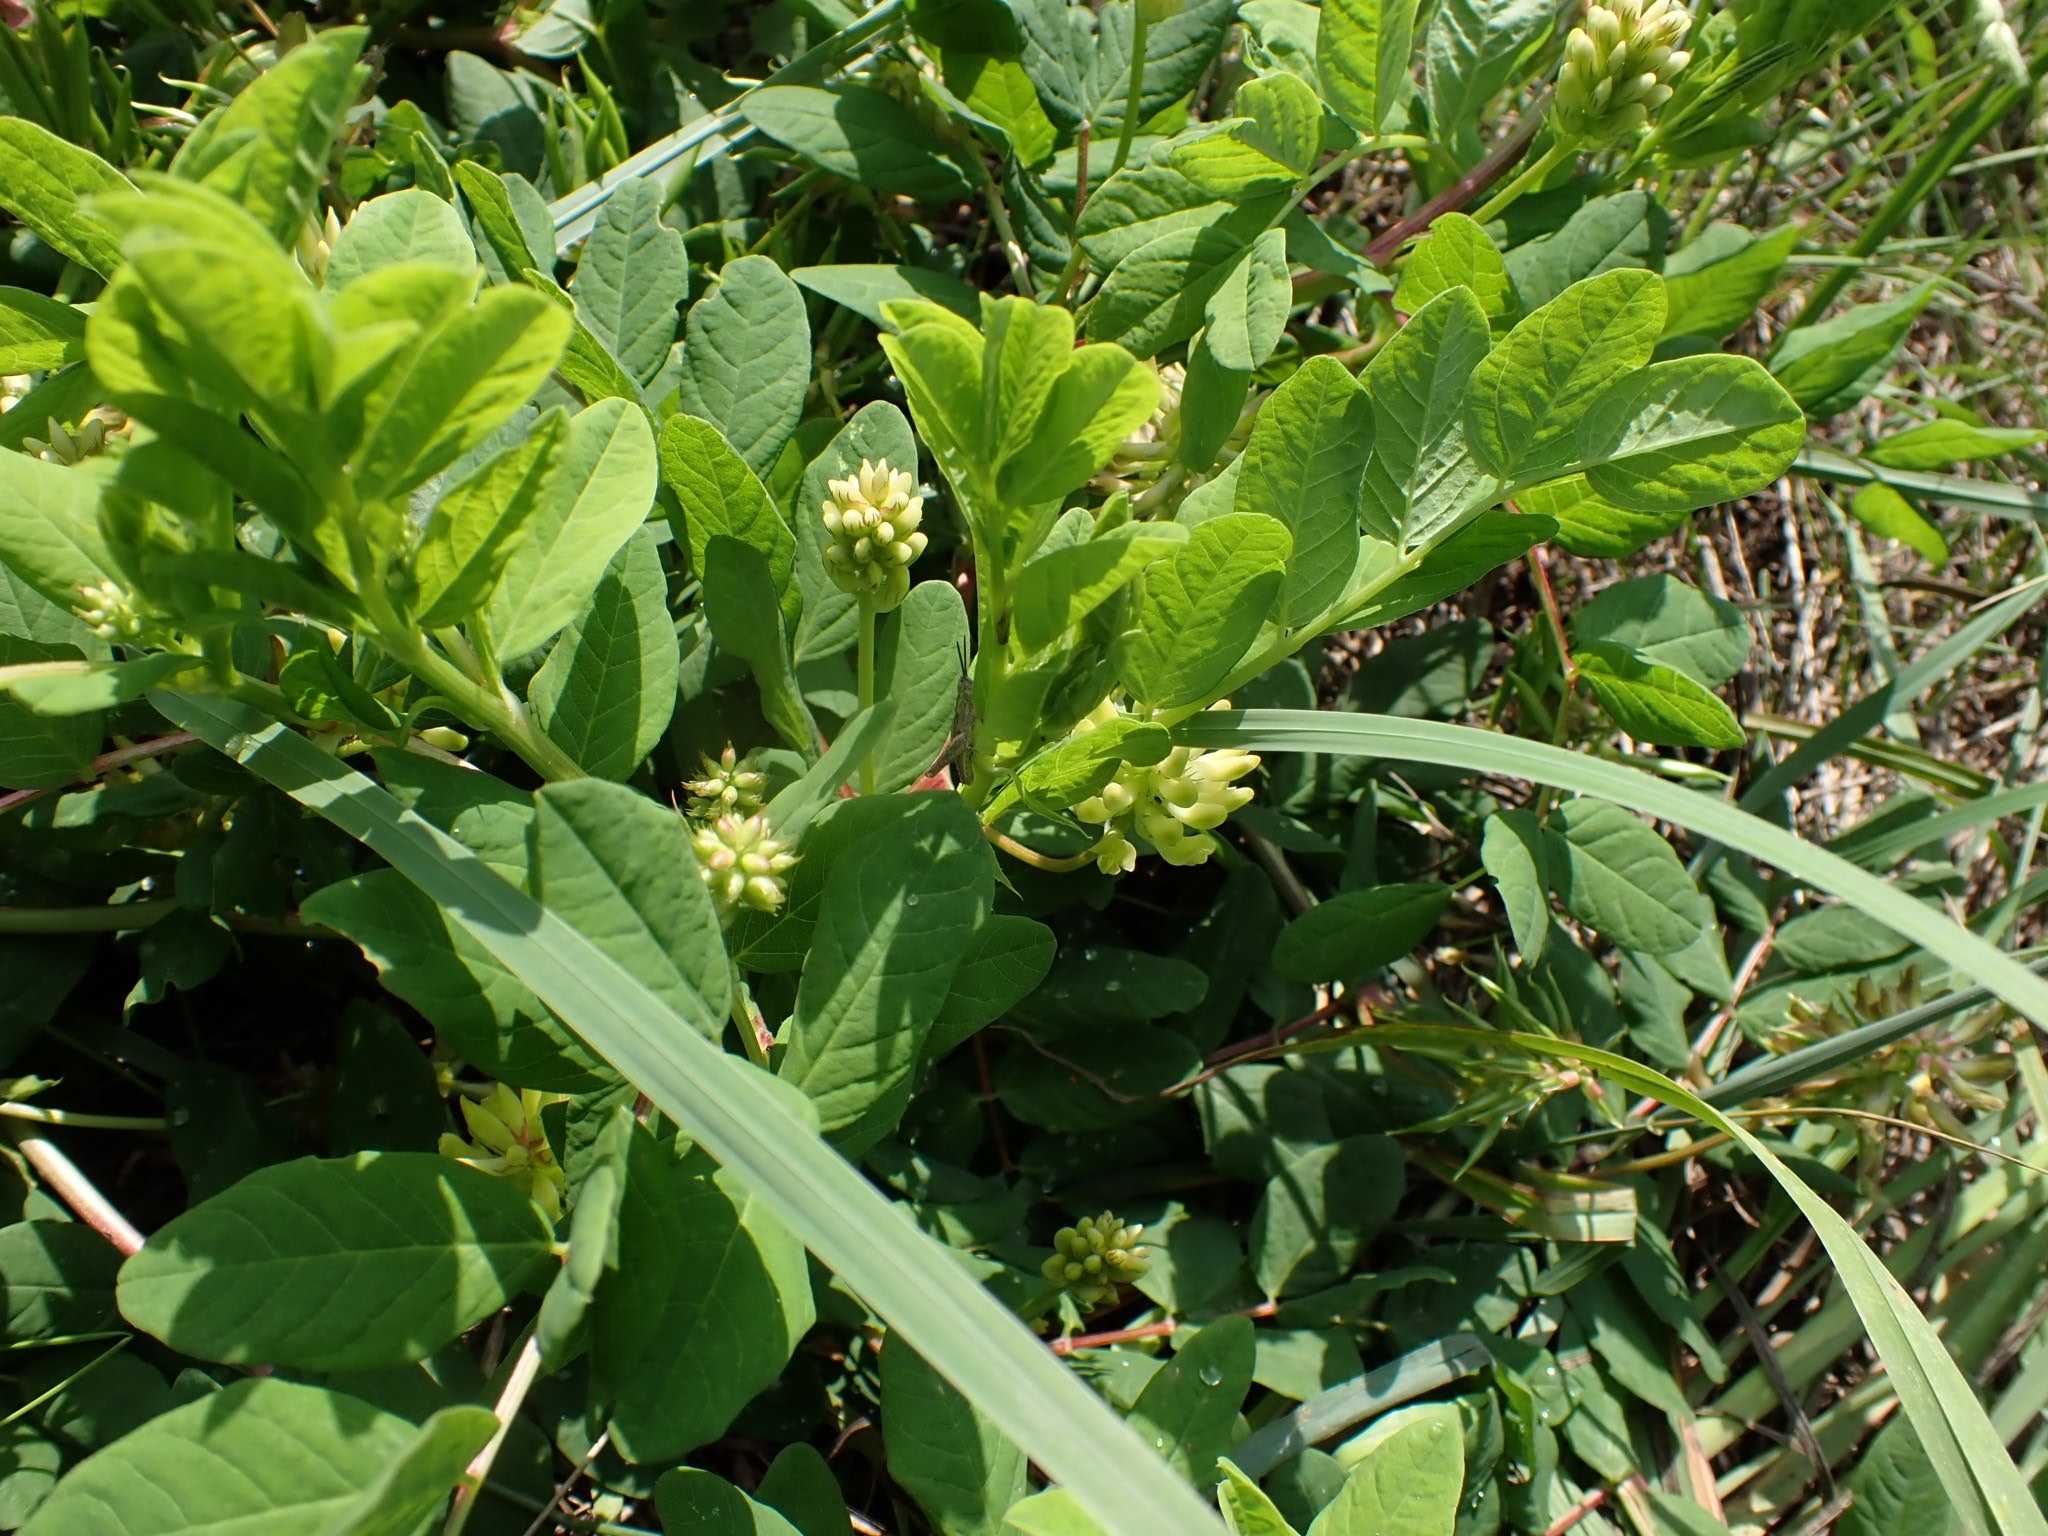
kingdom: Plantae
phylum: Tracheophyta
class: Magnoliopsida
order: Fabales
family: Fabaceae
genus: Astragalus
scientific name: Astragalus glycyphyllos
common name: Wild liquorice
